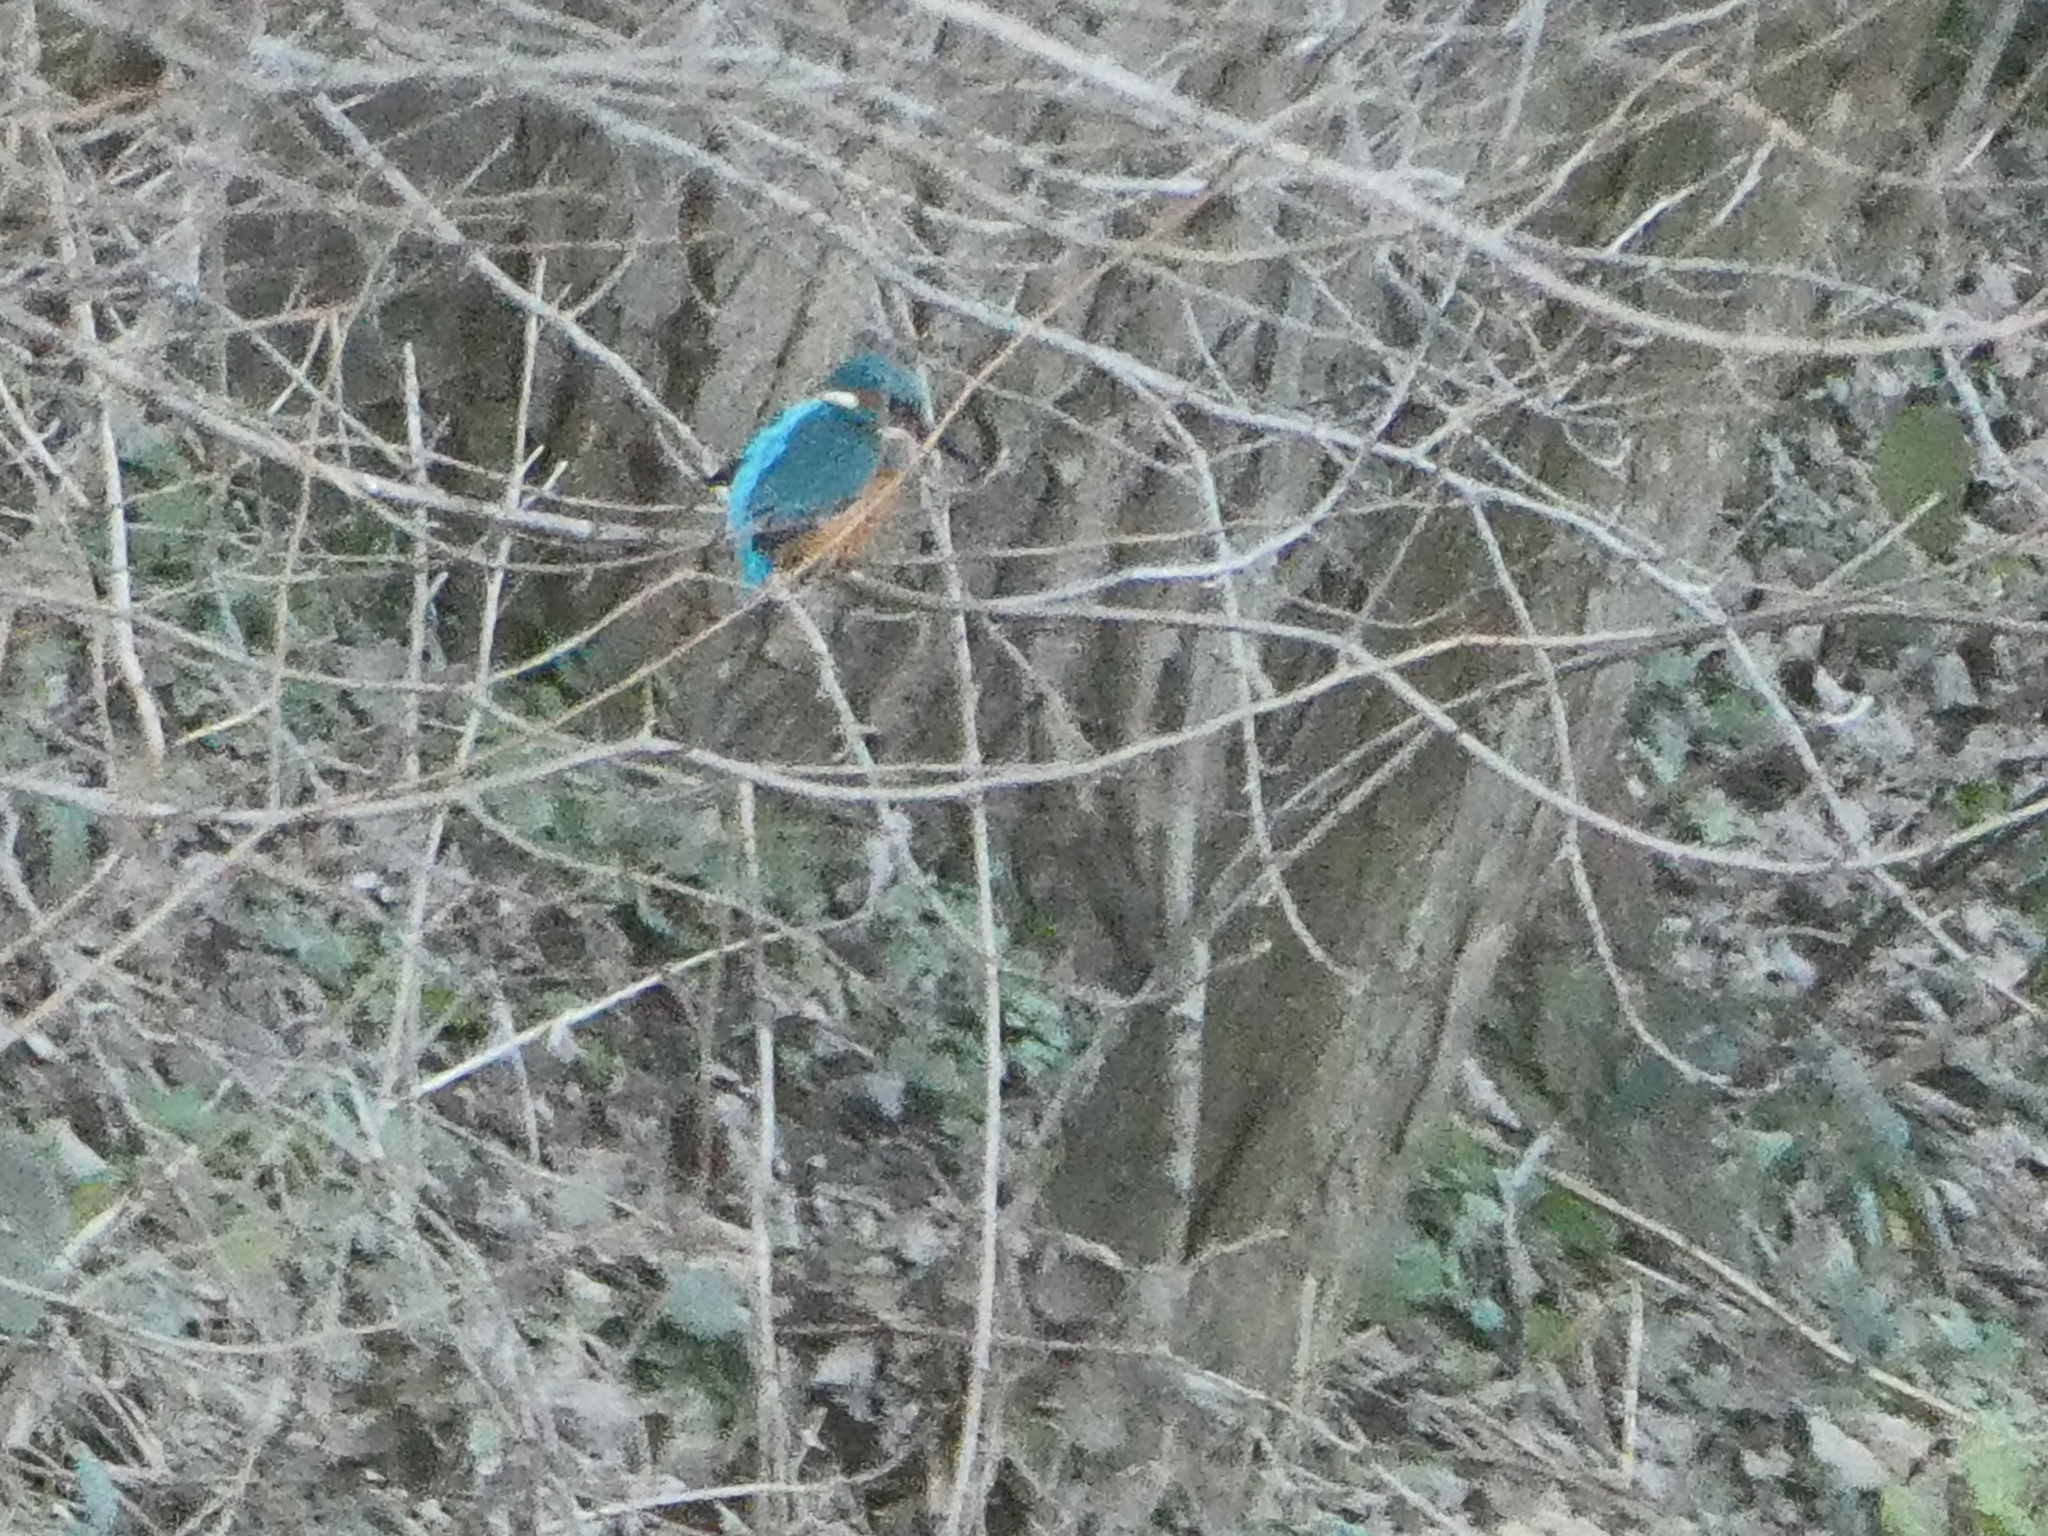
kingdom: Animalia
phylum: Chordata
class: Aves
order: Coraciiformes
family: Alcedinidae
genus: Alcedo
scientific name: Alcedo atthis
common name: Common kingfisher
